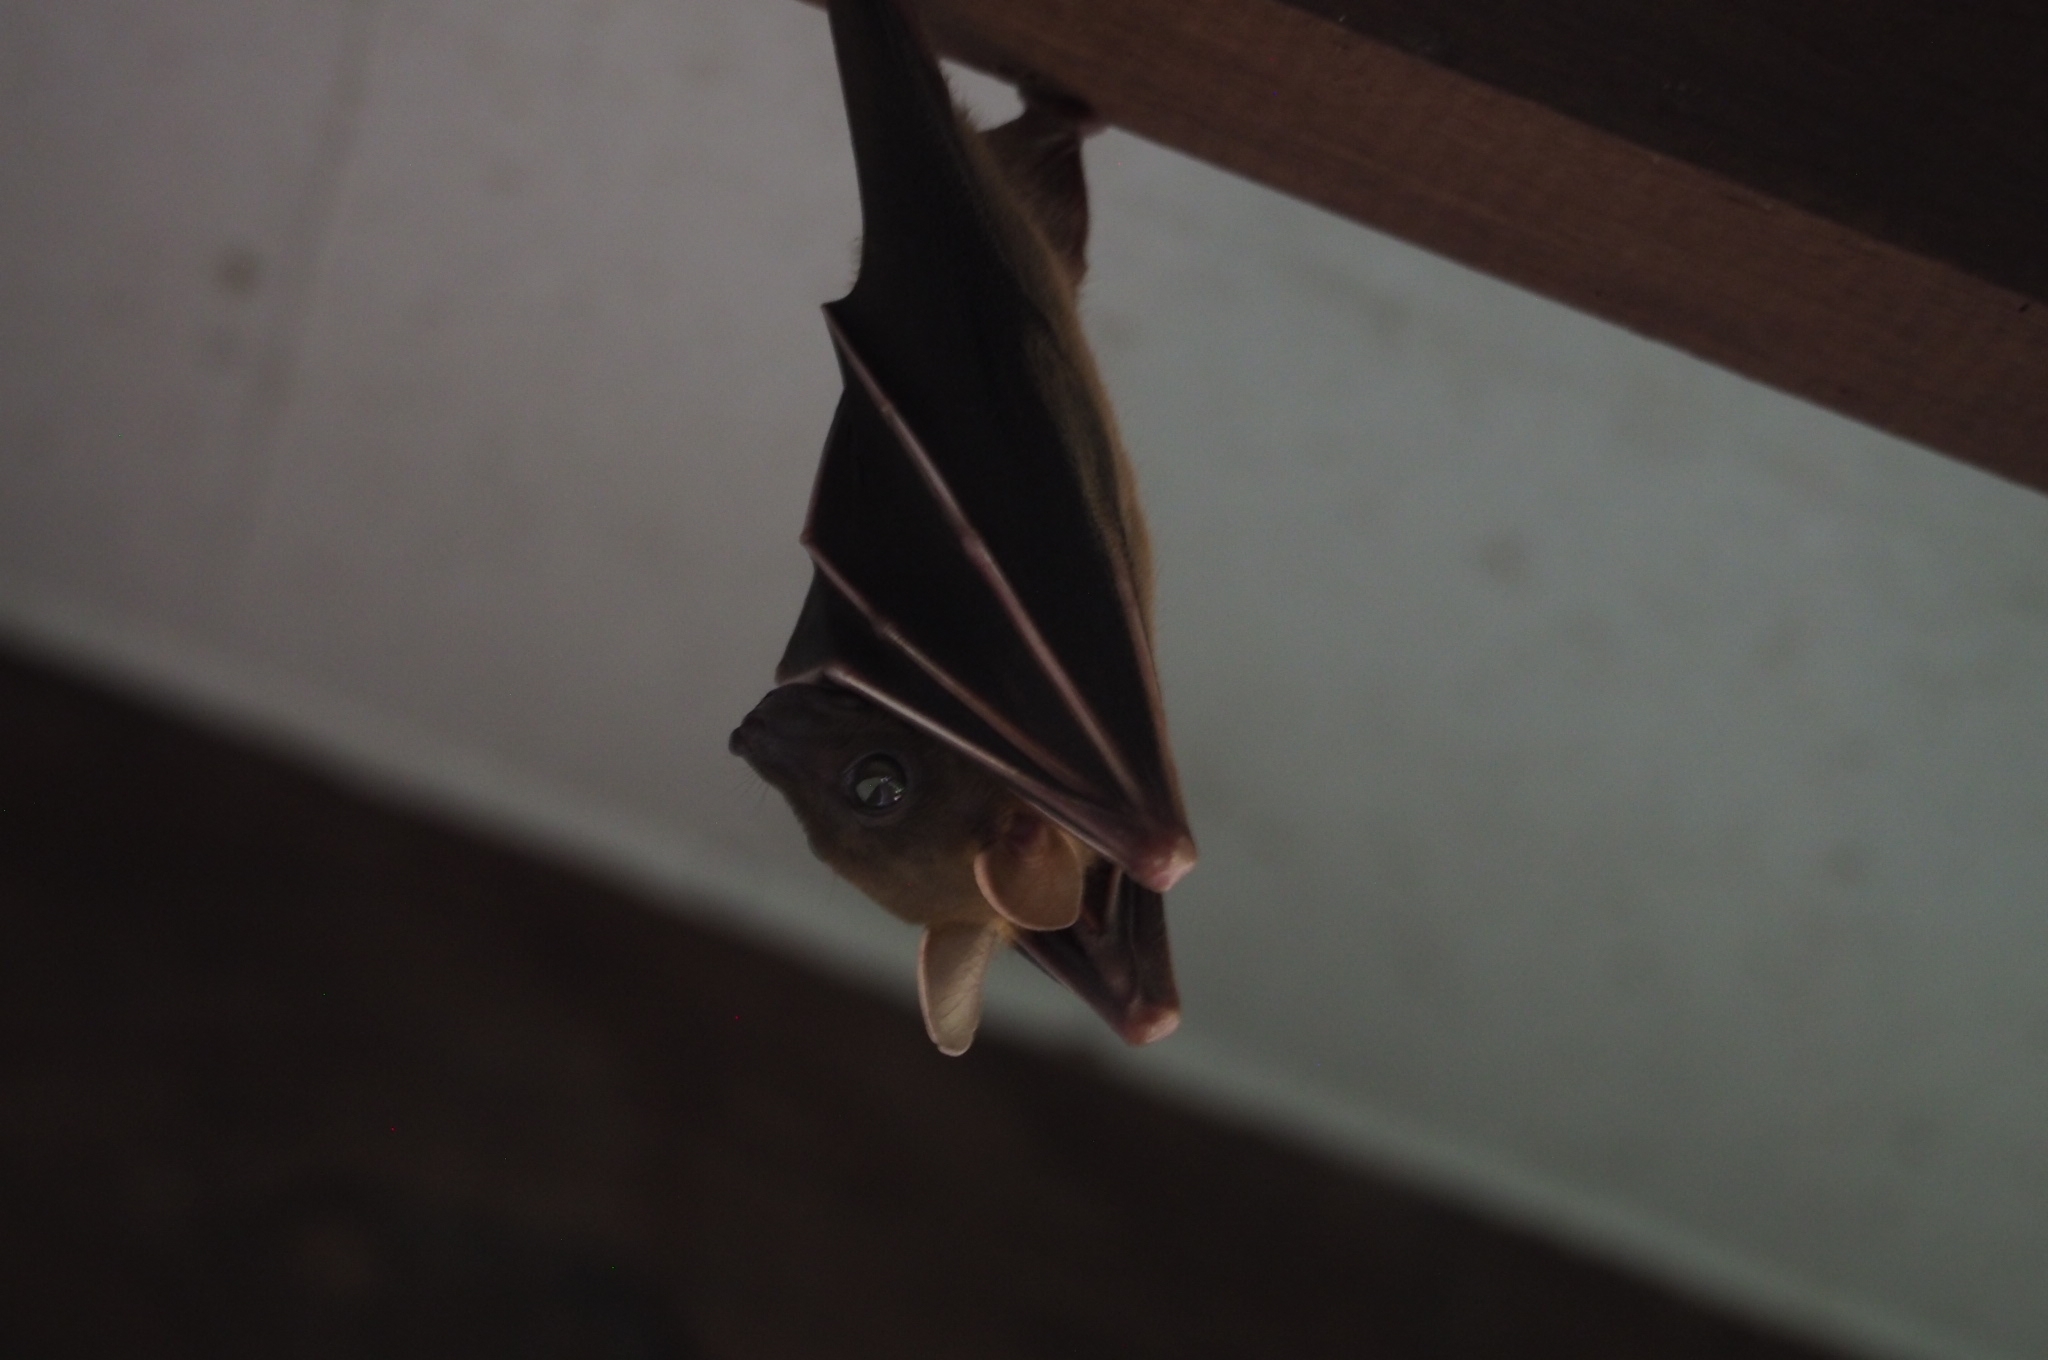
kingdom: Animalia
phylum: Chordata
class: Mammalia
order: Chiroptera
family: Pteropodidae
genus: Cynopterus
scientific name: Cynopterus brachyotis
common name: Lesser short-nosed fruit bat
